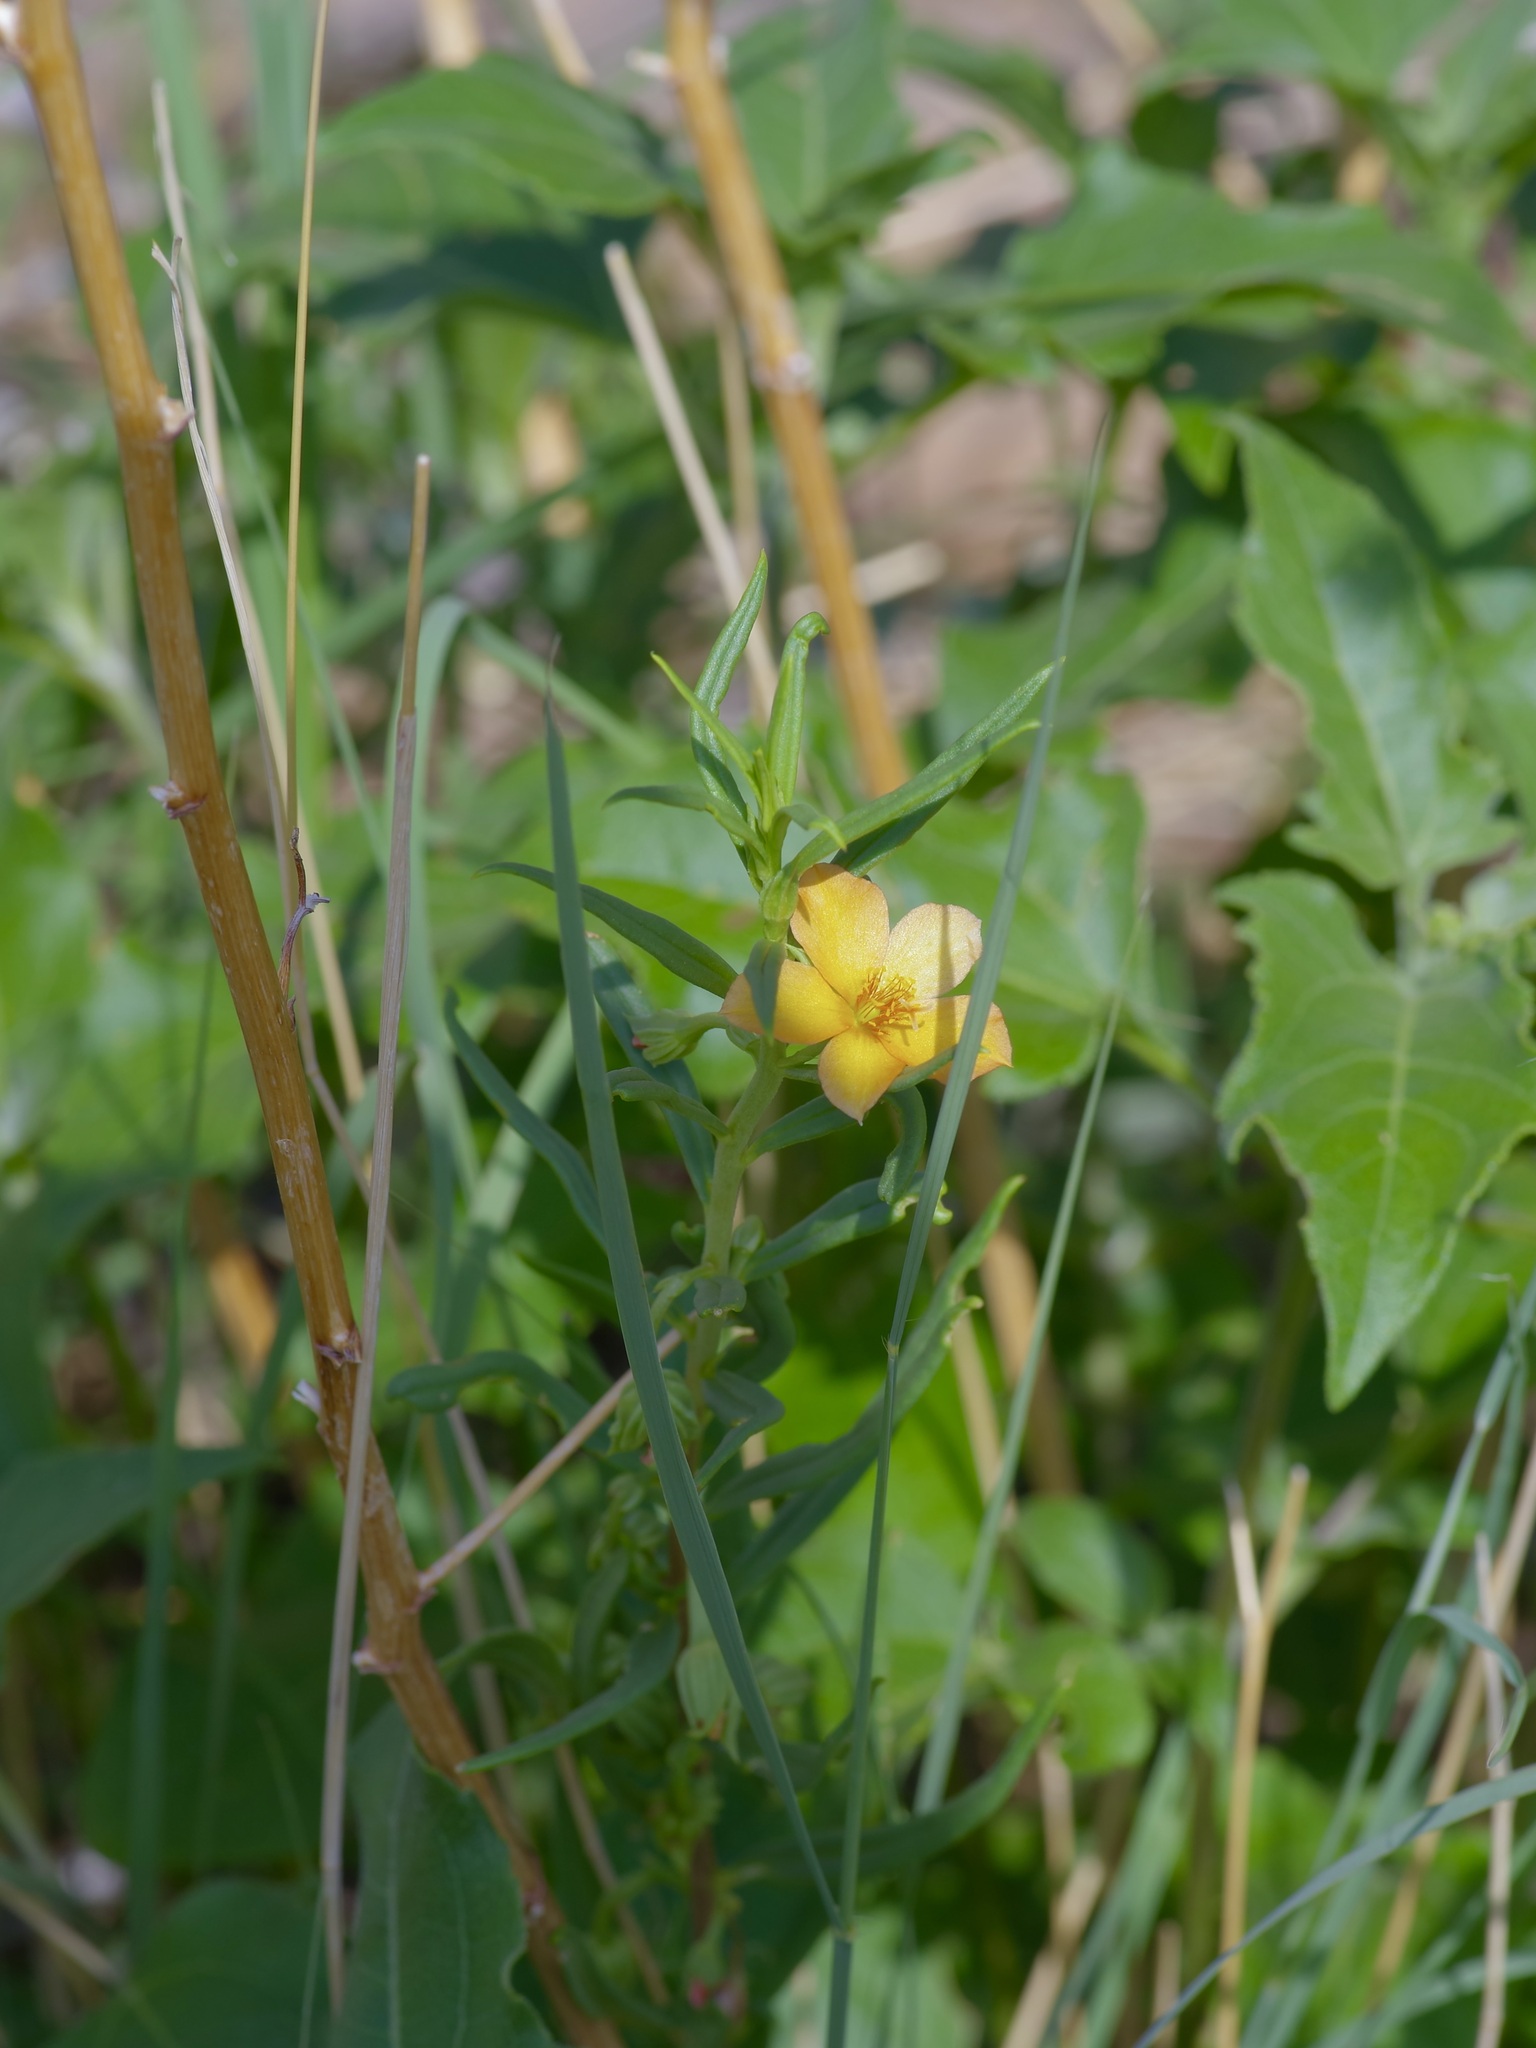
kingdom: Plantae
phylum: Tracheophyta
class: Magnoliopsida
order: Caryophyllales
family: Montiaceae
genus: Phemeranthus
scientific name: Phemeranthus aurantiacus
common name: Orange fameflower
